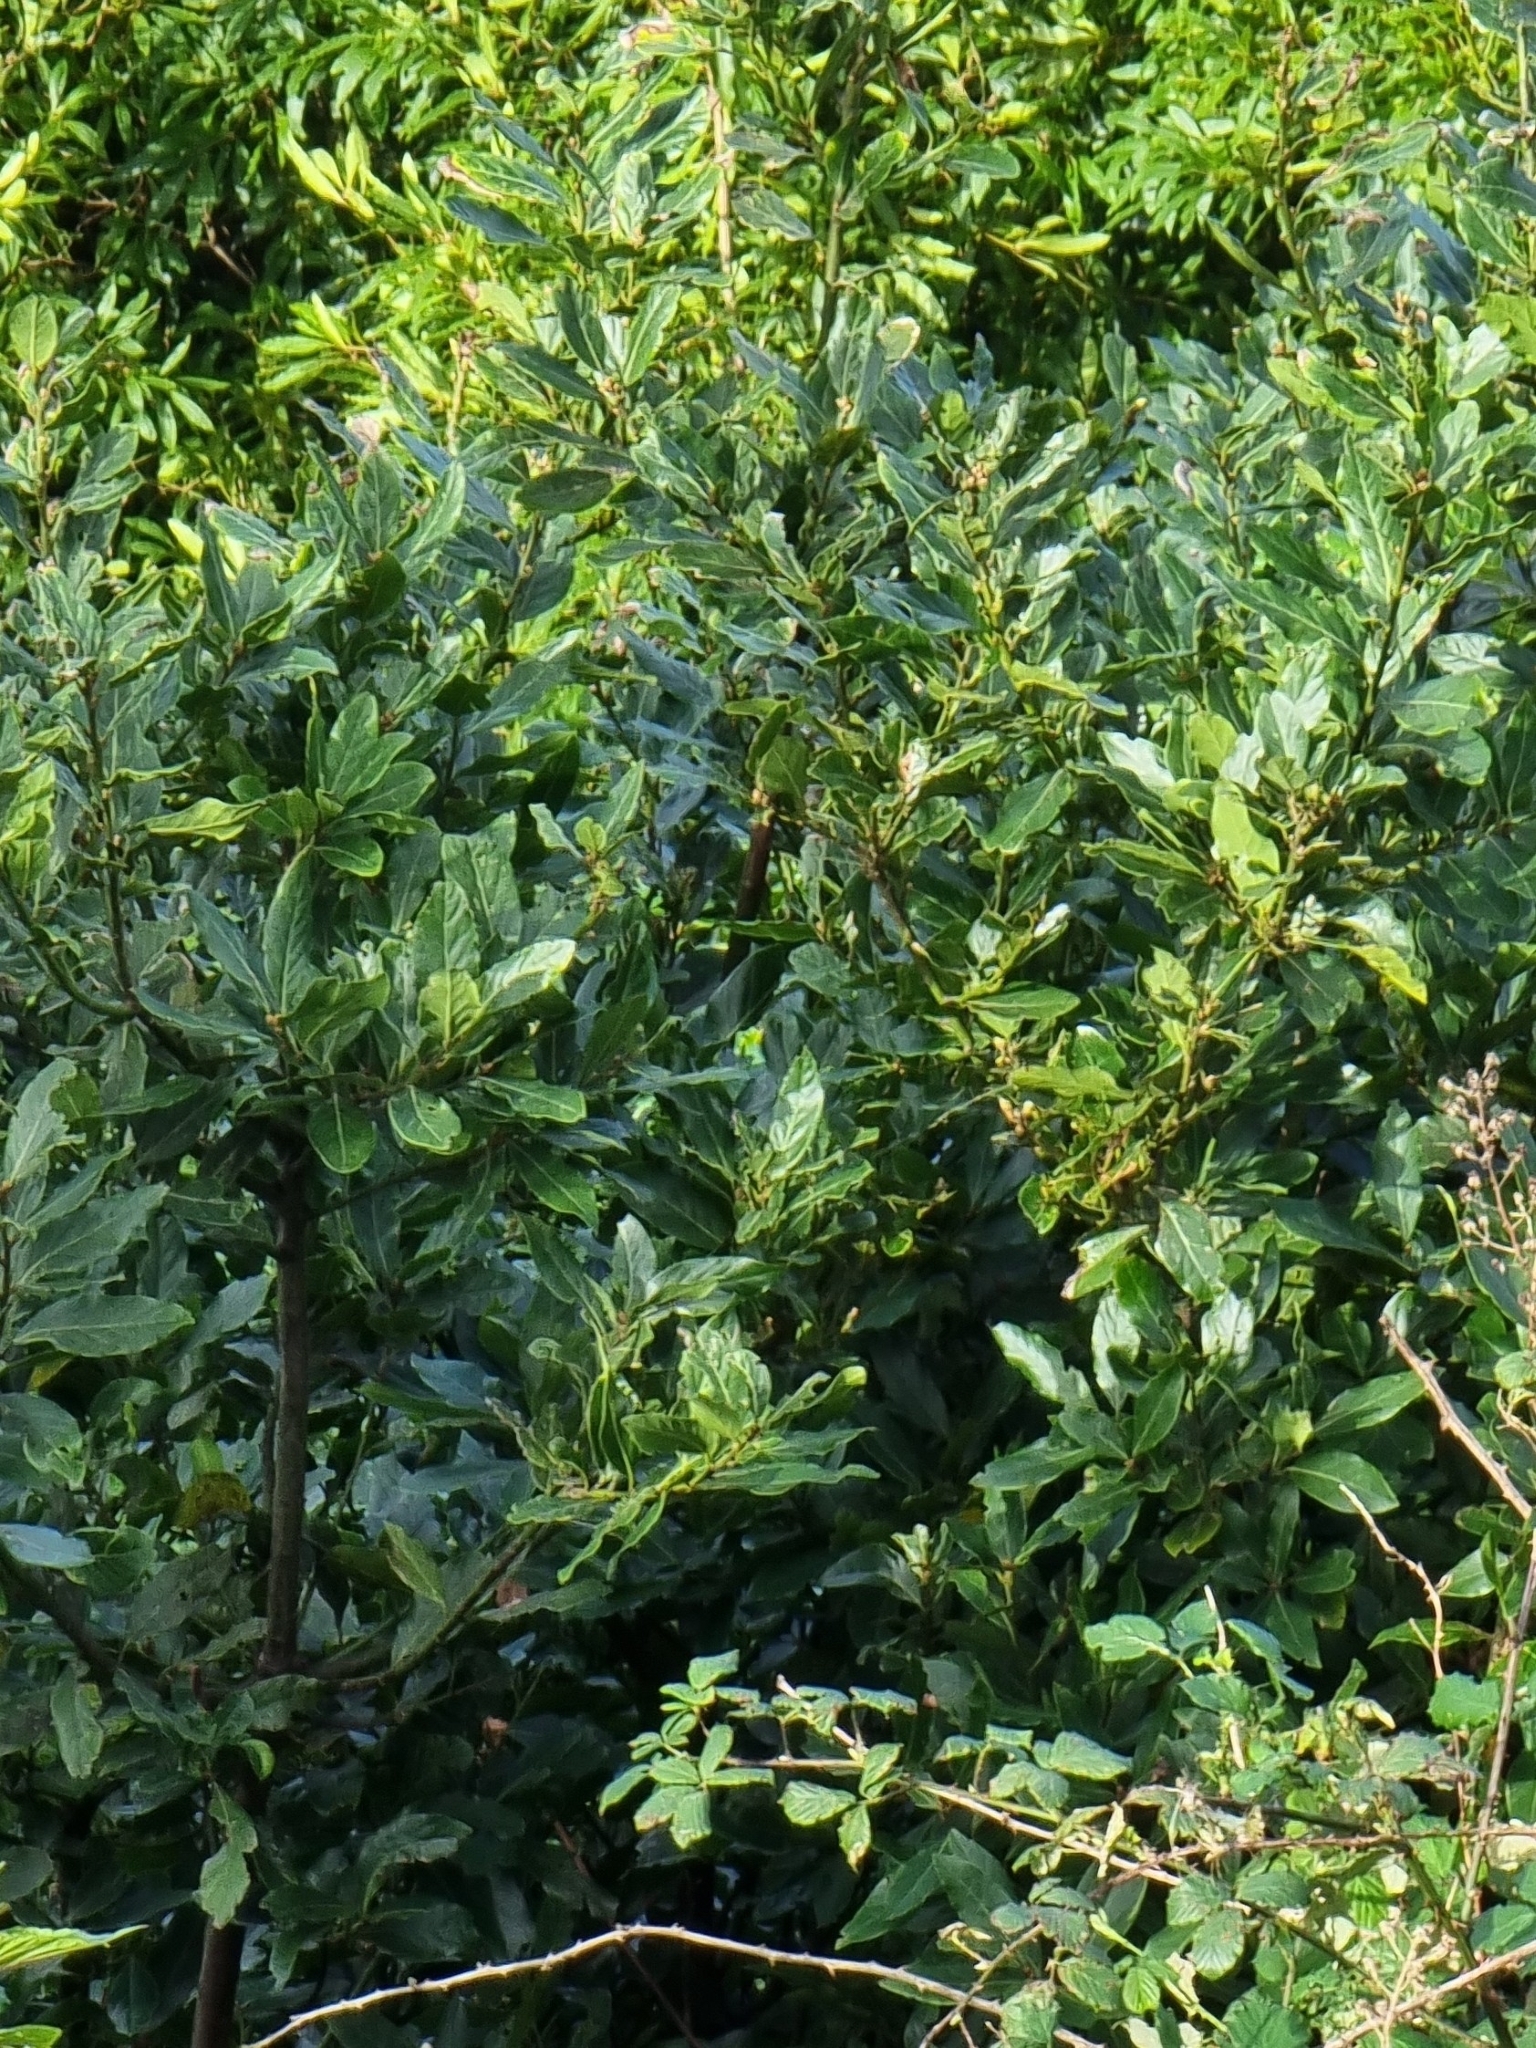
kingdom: Plantae
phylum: Tracheophyta
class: Magnoliopsida
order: Laurales
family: Lauraceae
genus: Laurus
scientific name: Laurus novocanariensis
